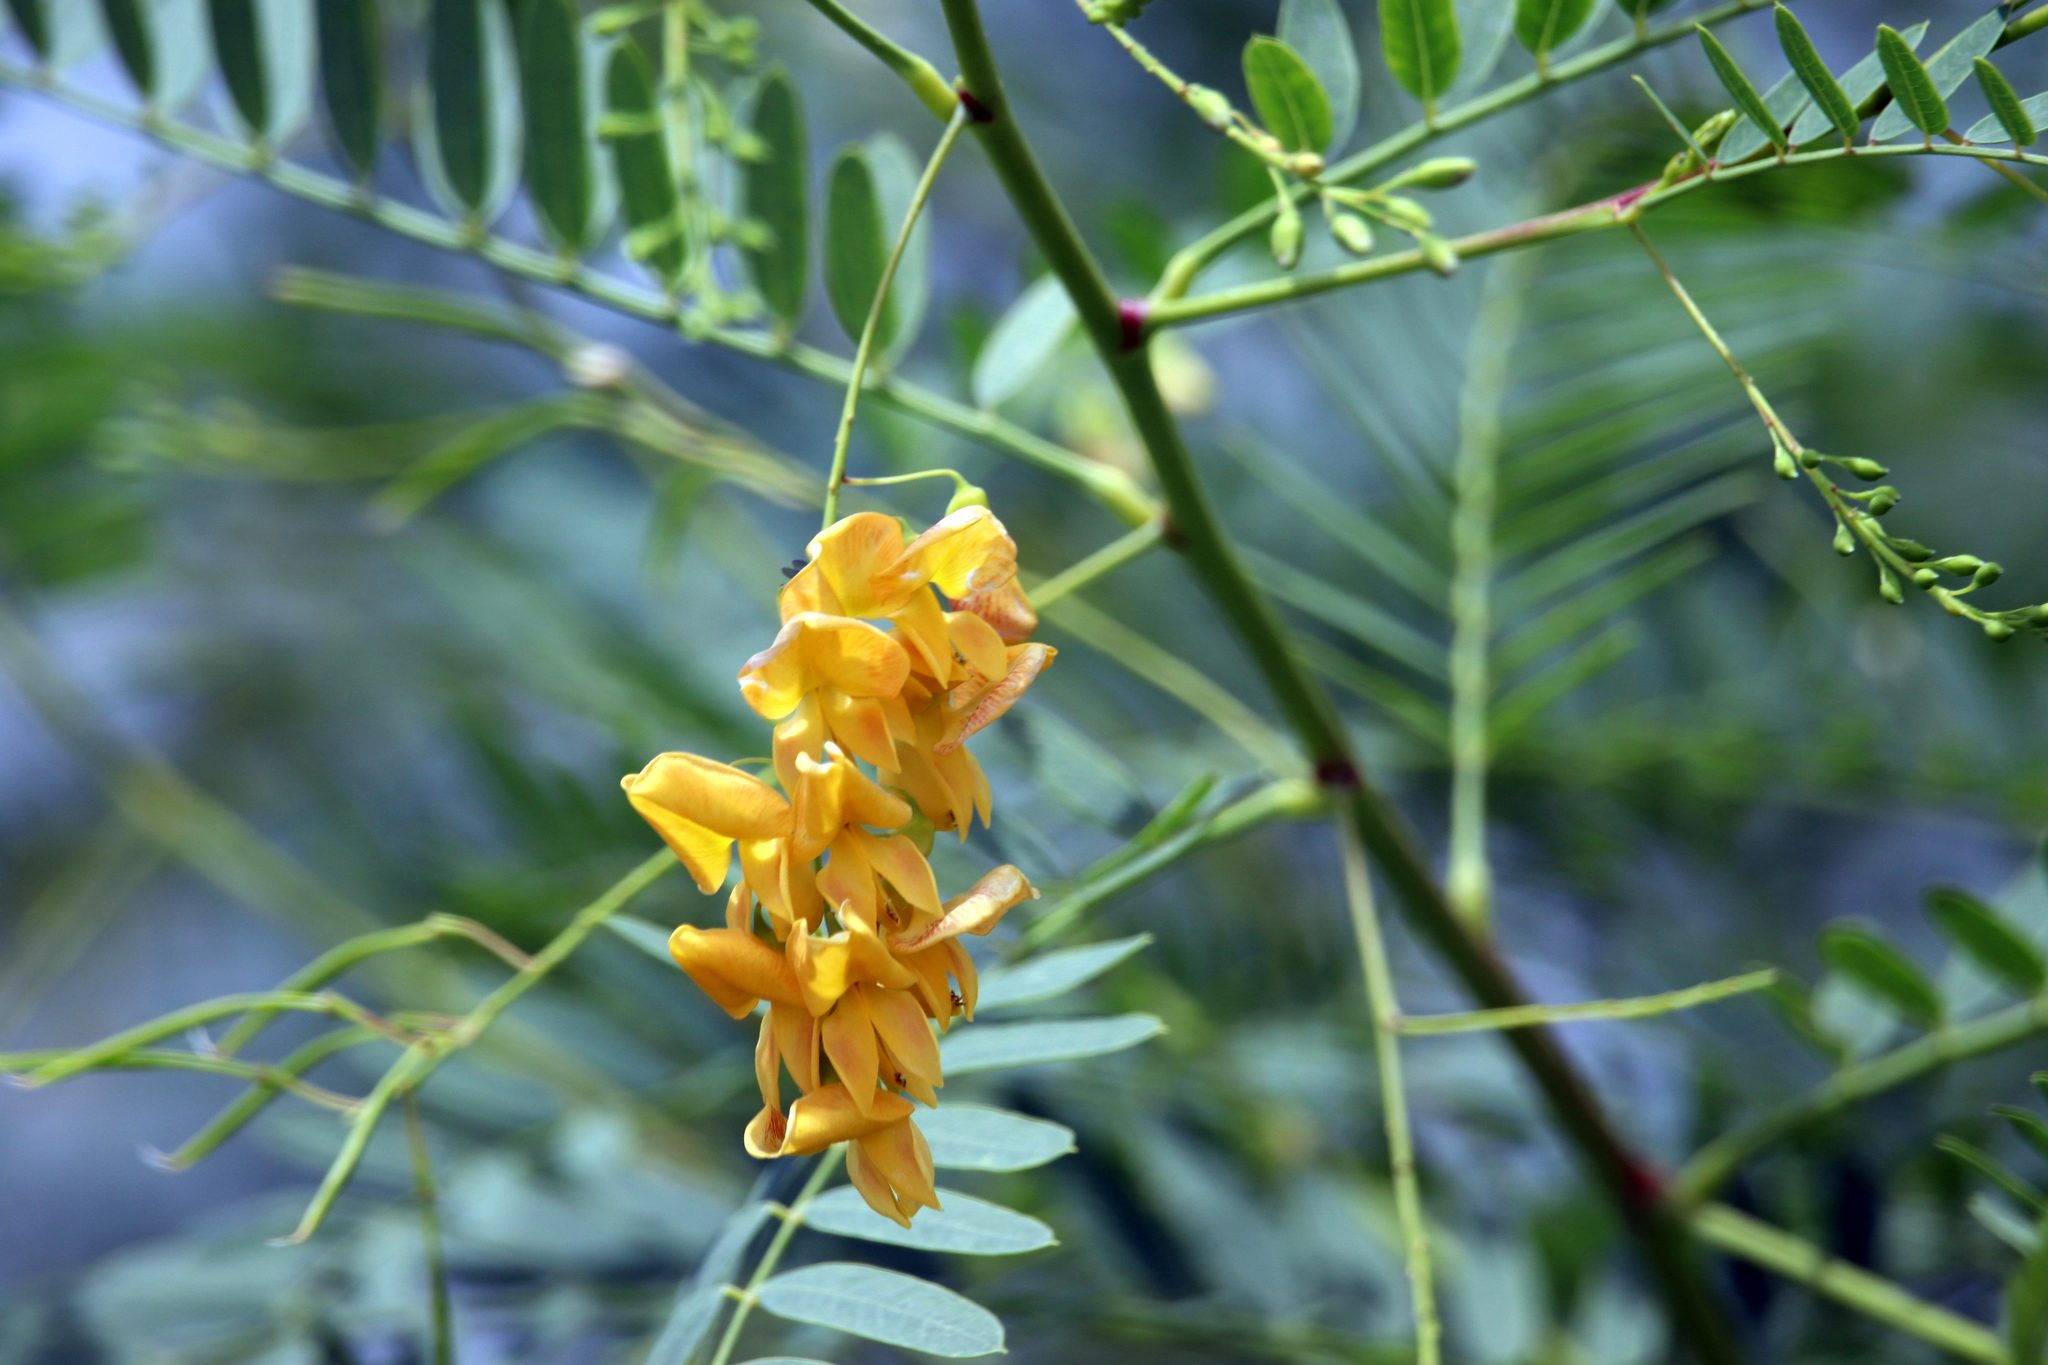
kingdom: Plantae
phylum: Tracheophyta
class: Magnoliopsida
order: Fabales
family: Fabaceae
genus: Sesbania
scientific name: Sesbania drummondii
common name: Poison-bean
